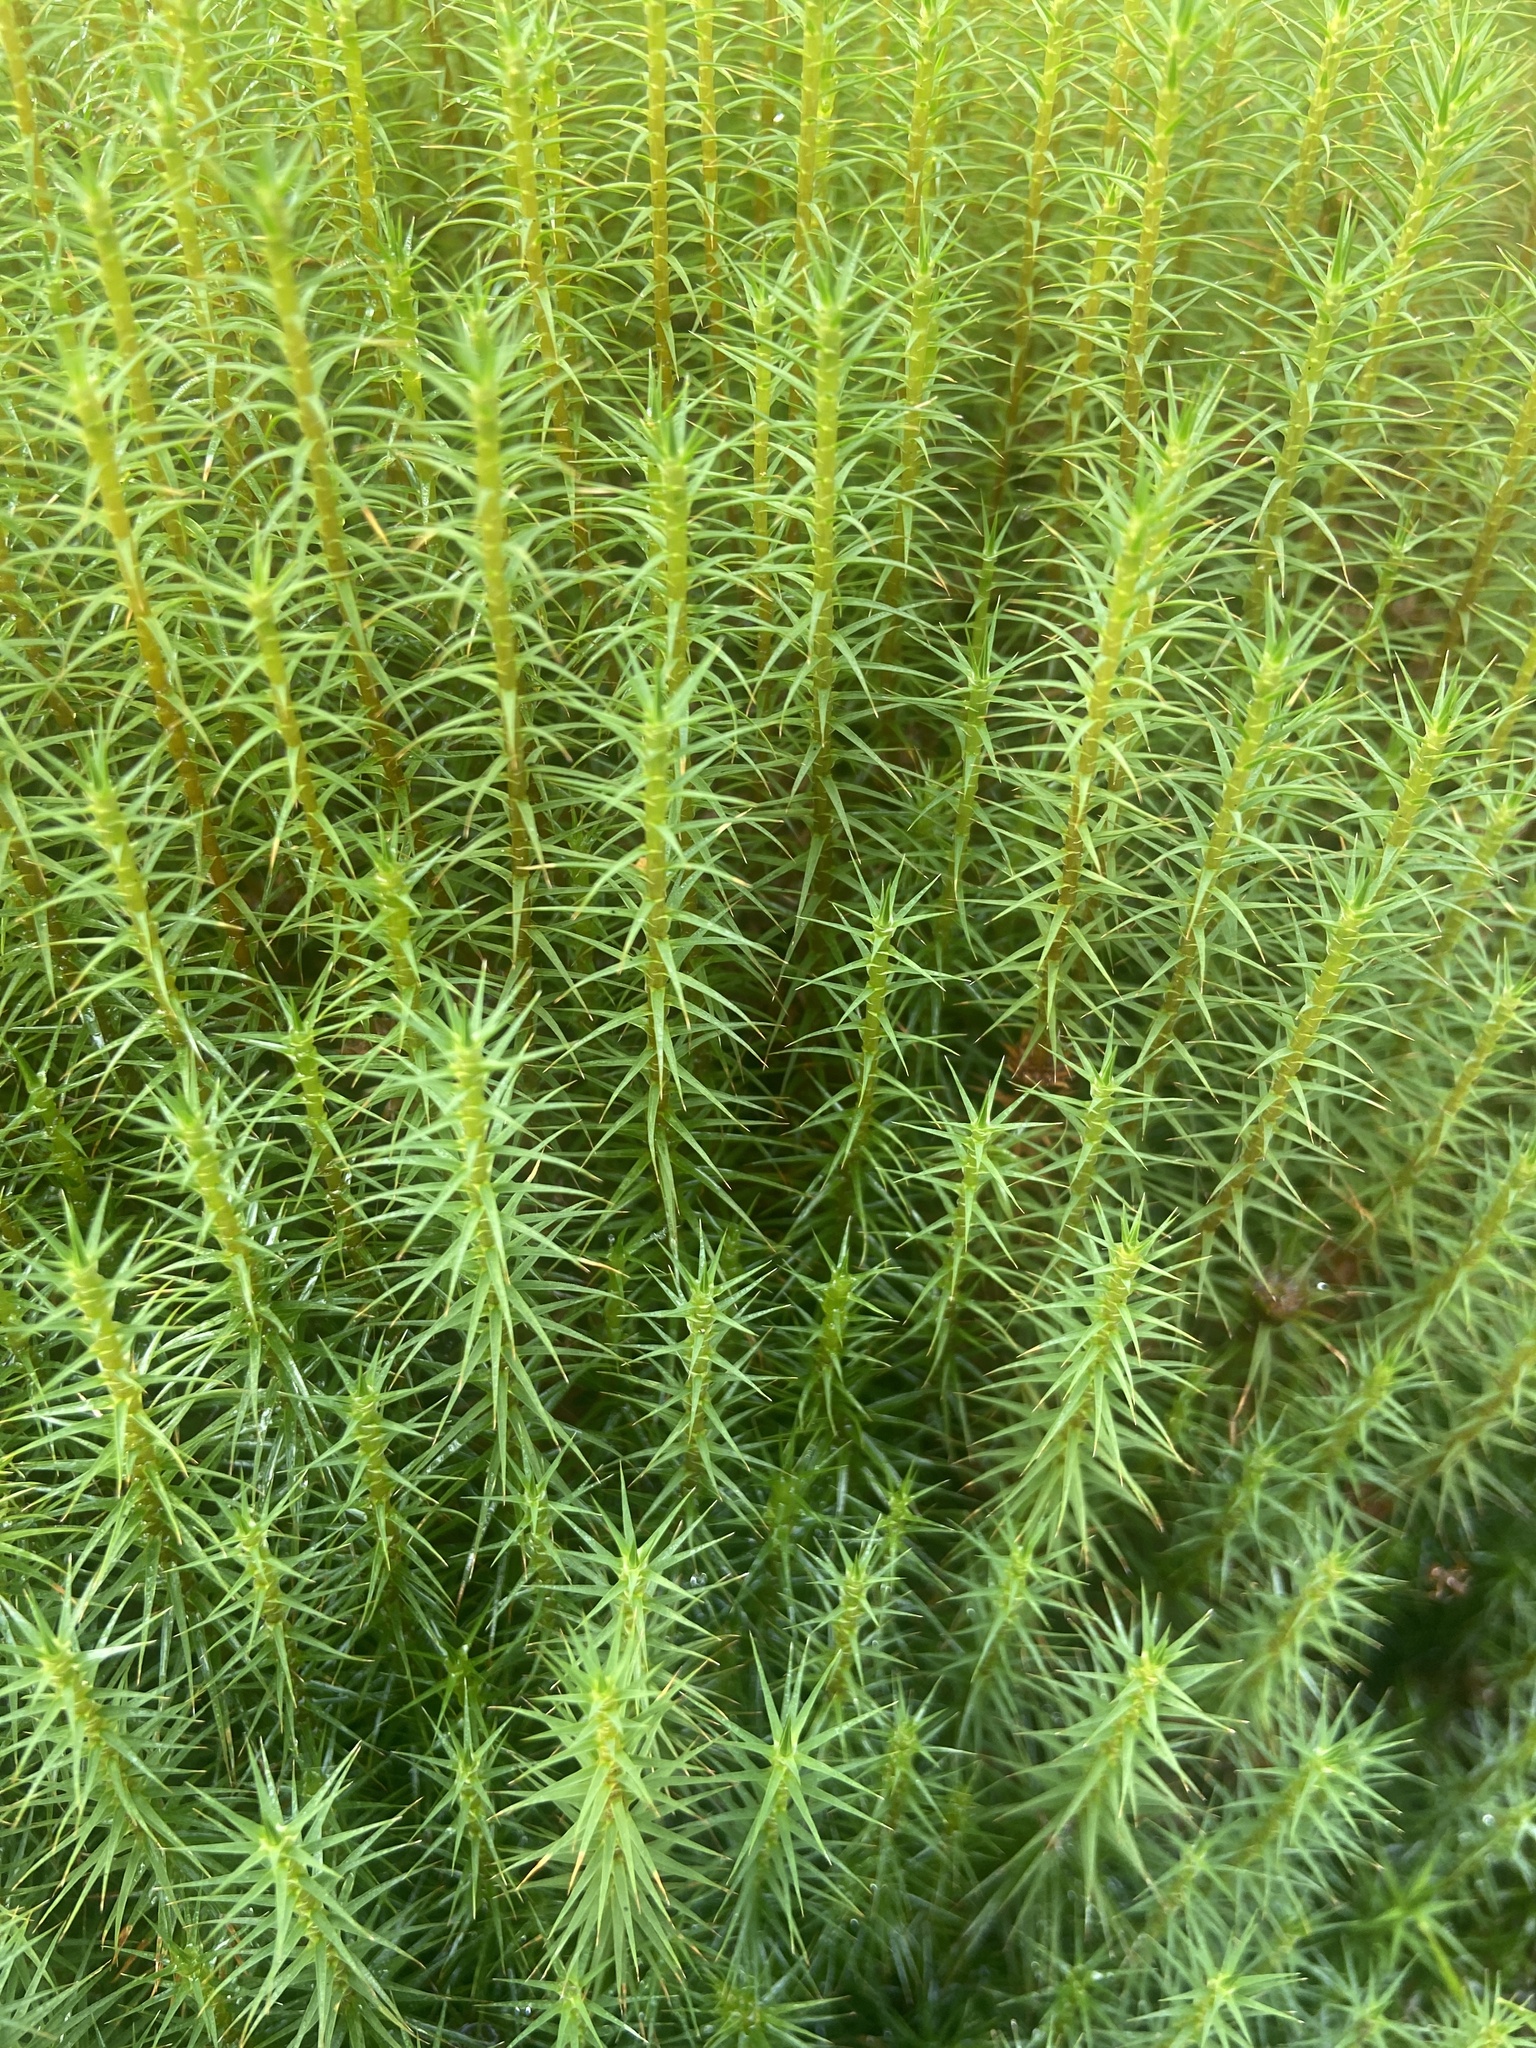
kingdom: Plantae
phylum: Bryophyta
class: Polytrichopsida
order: Polytrichales
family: Polytrichaceae
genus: Polytrichum
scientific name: Polytrichum commune
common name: Common haircap
